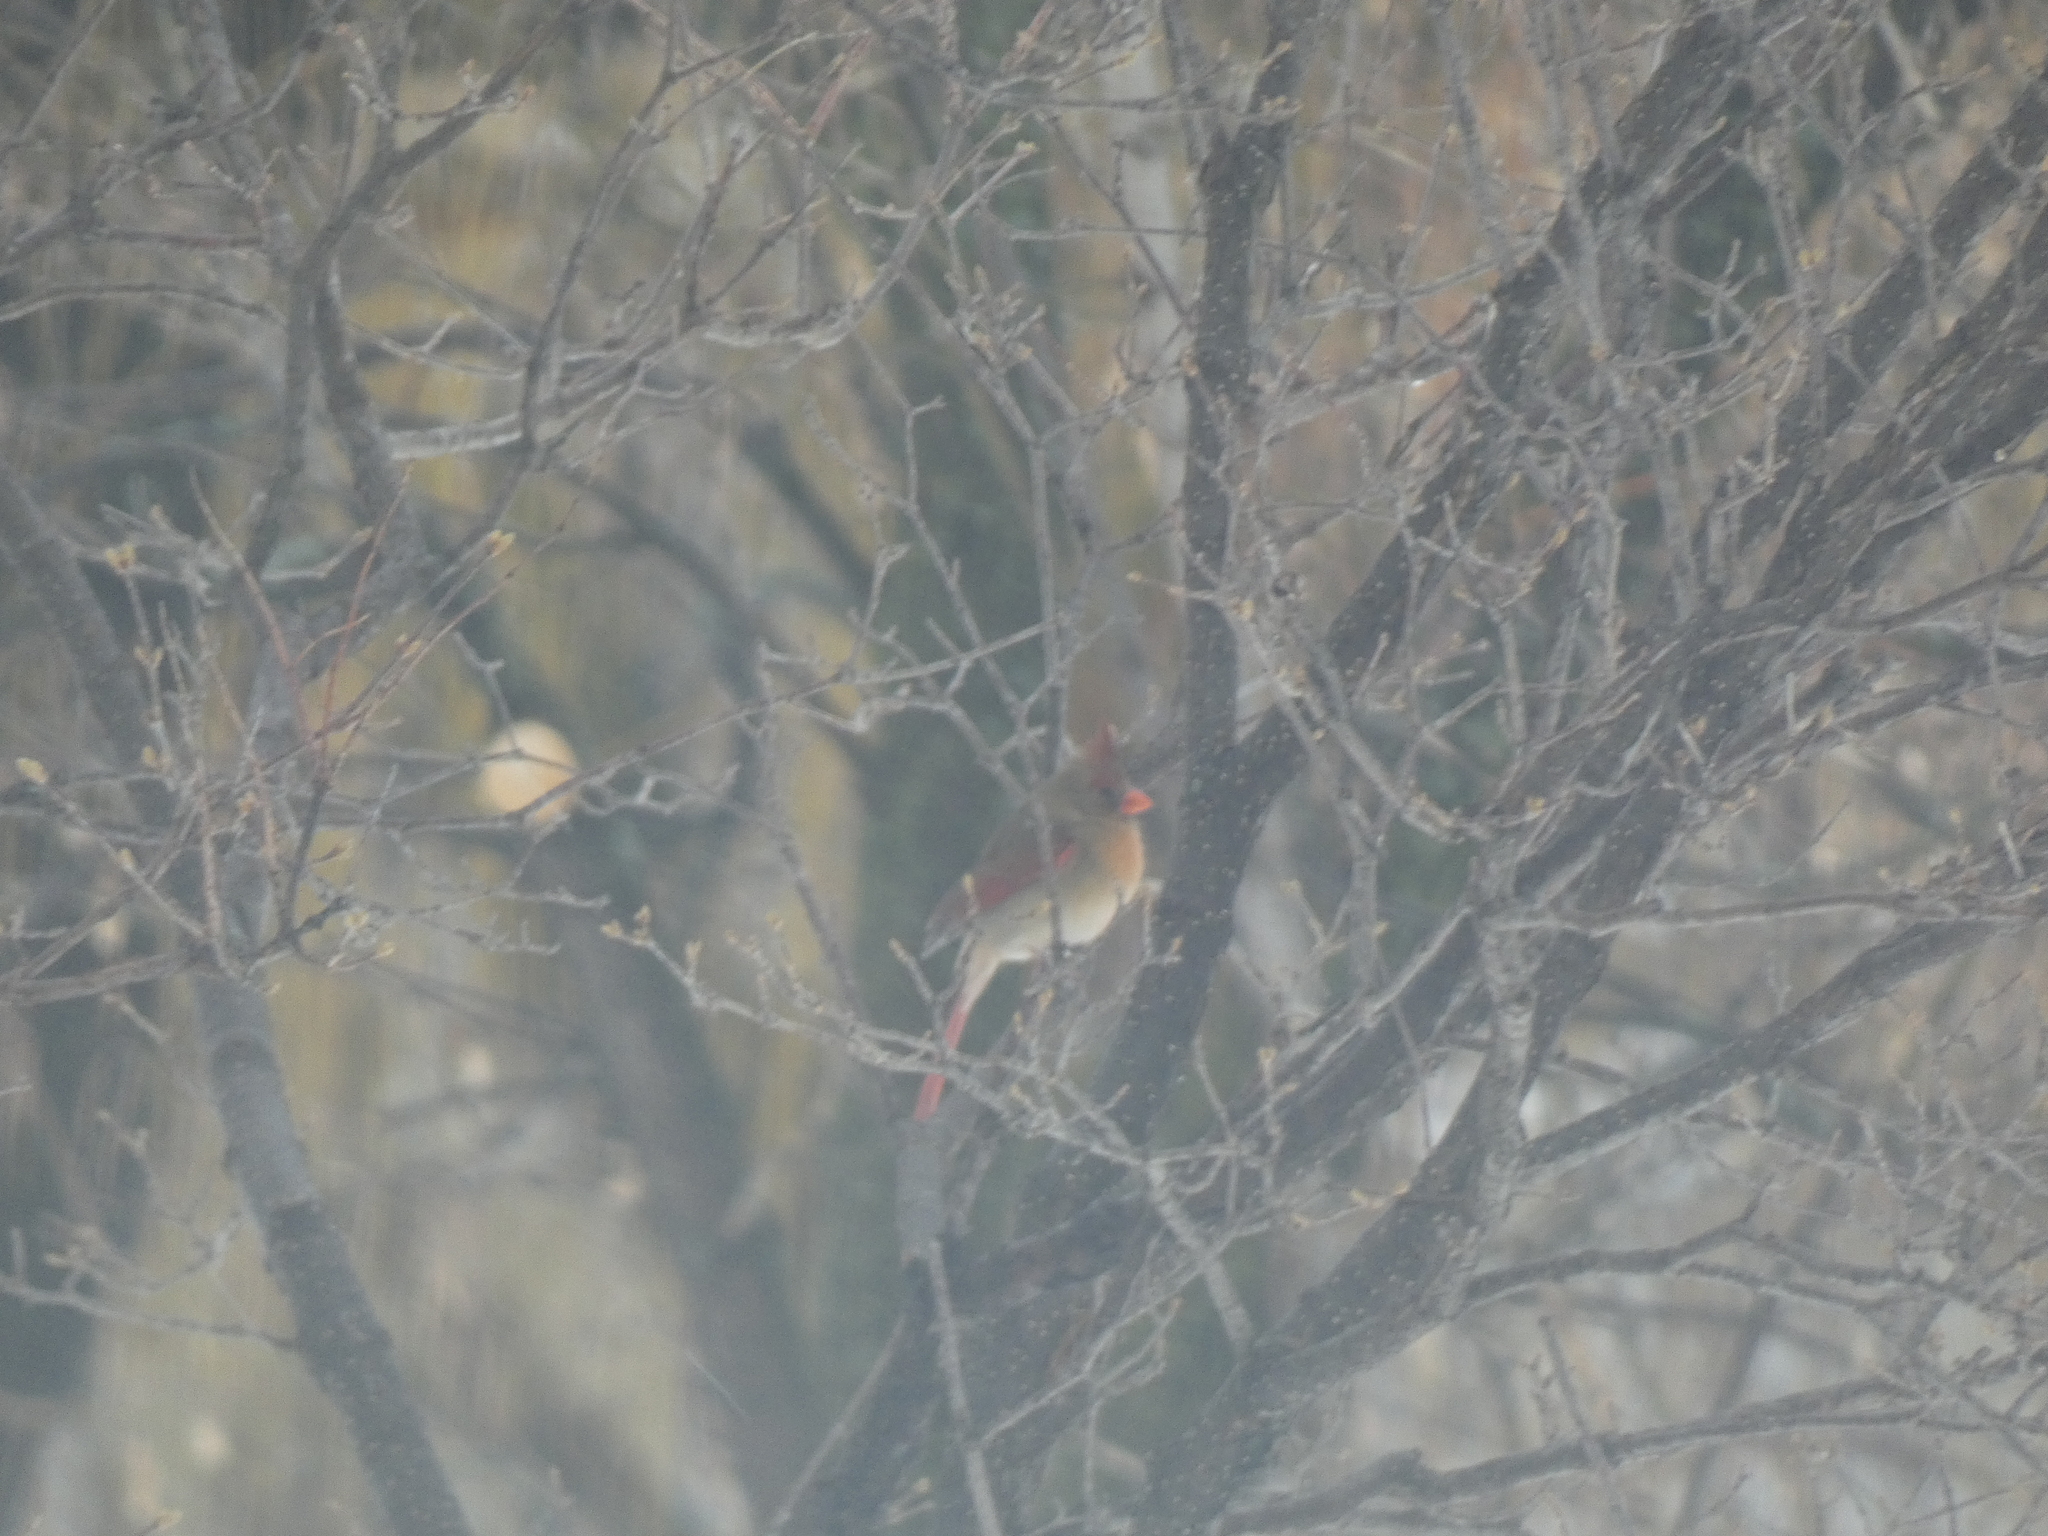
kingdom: Animalia
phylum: Chordata
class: Aves
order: Passeriformes
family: Cardinalidae
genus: Cardinalis
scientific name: Cardinalis cardinalis
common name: Northern cardinal
